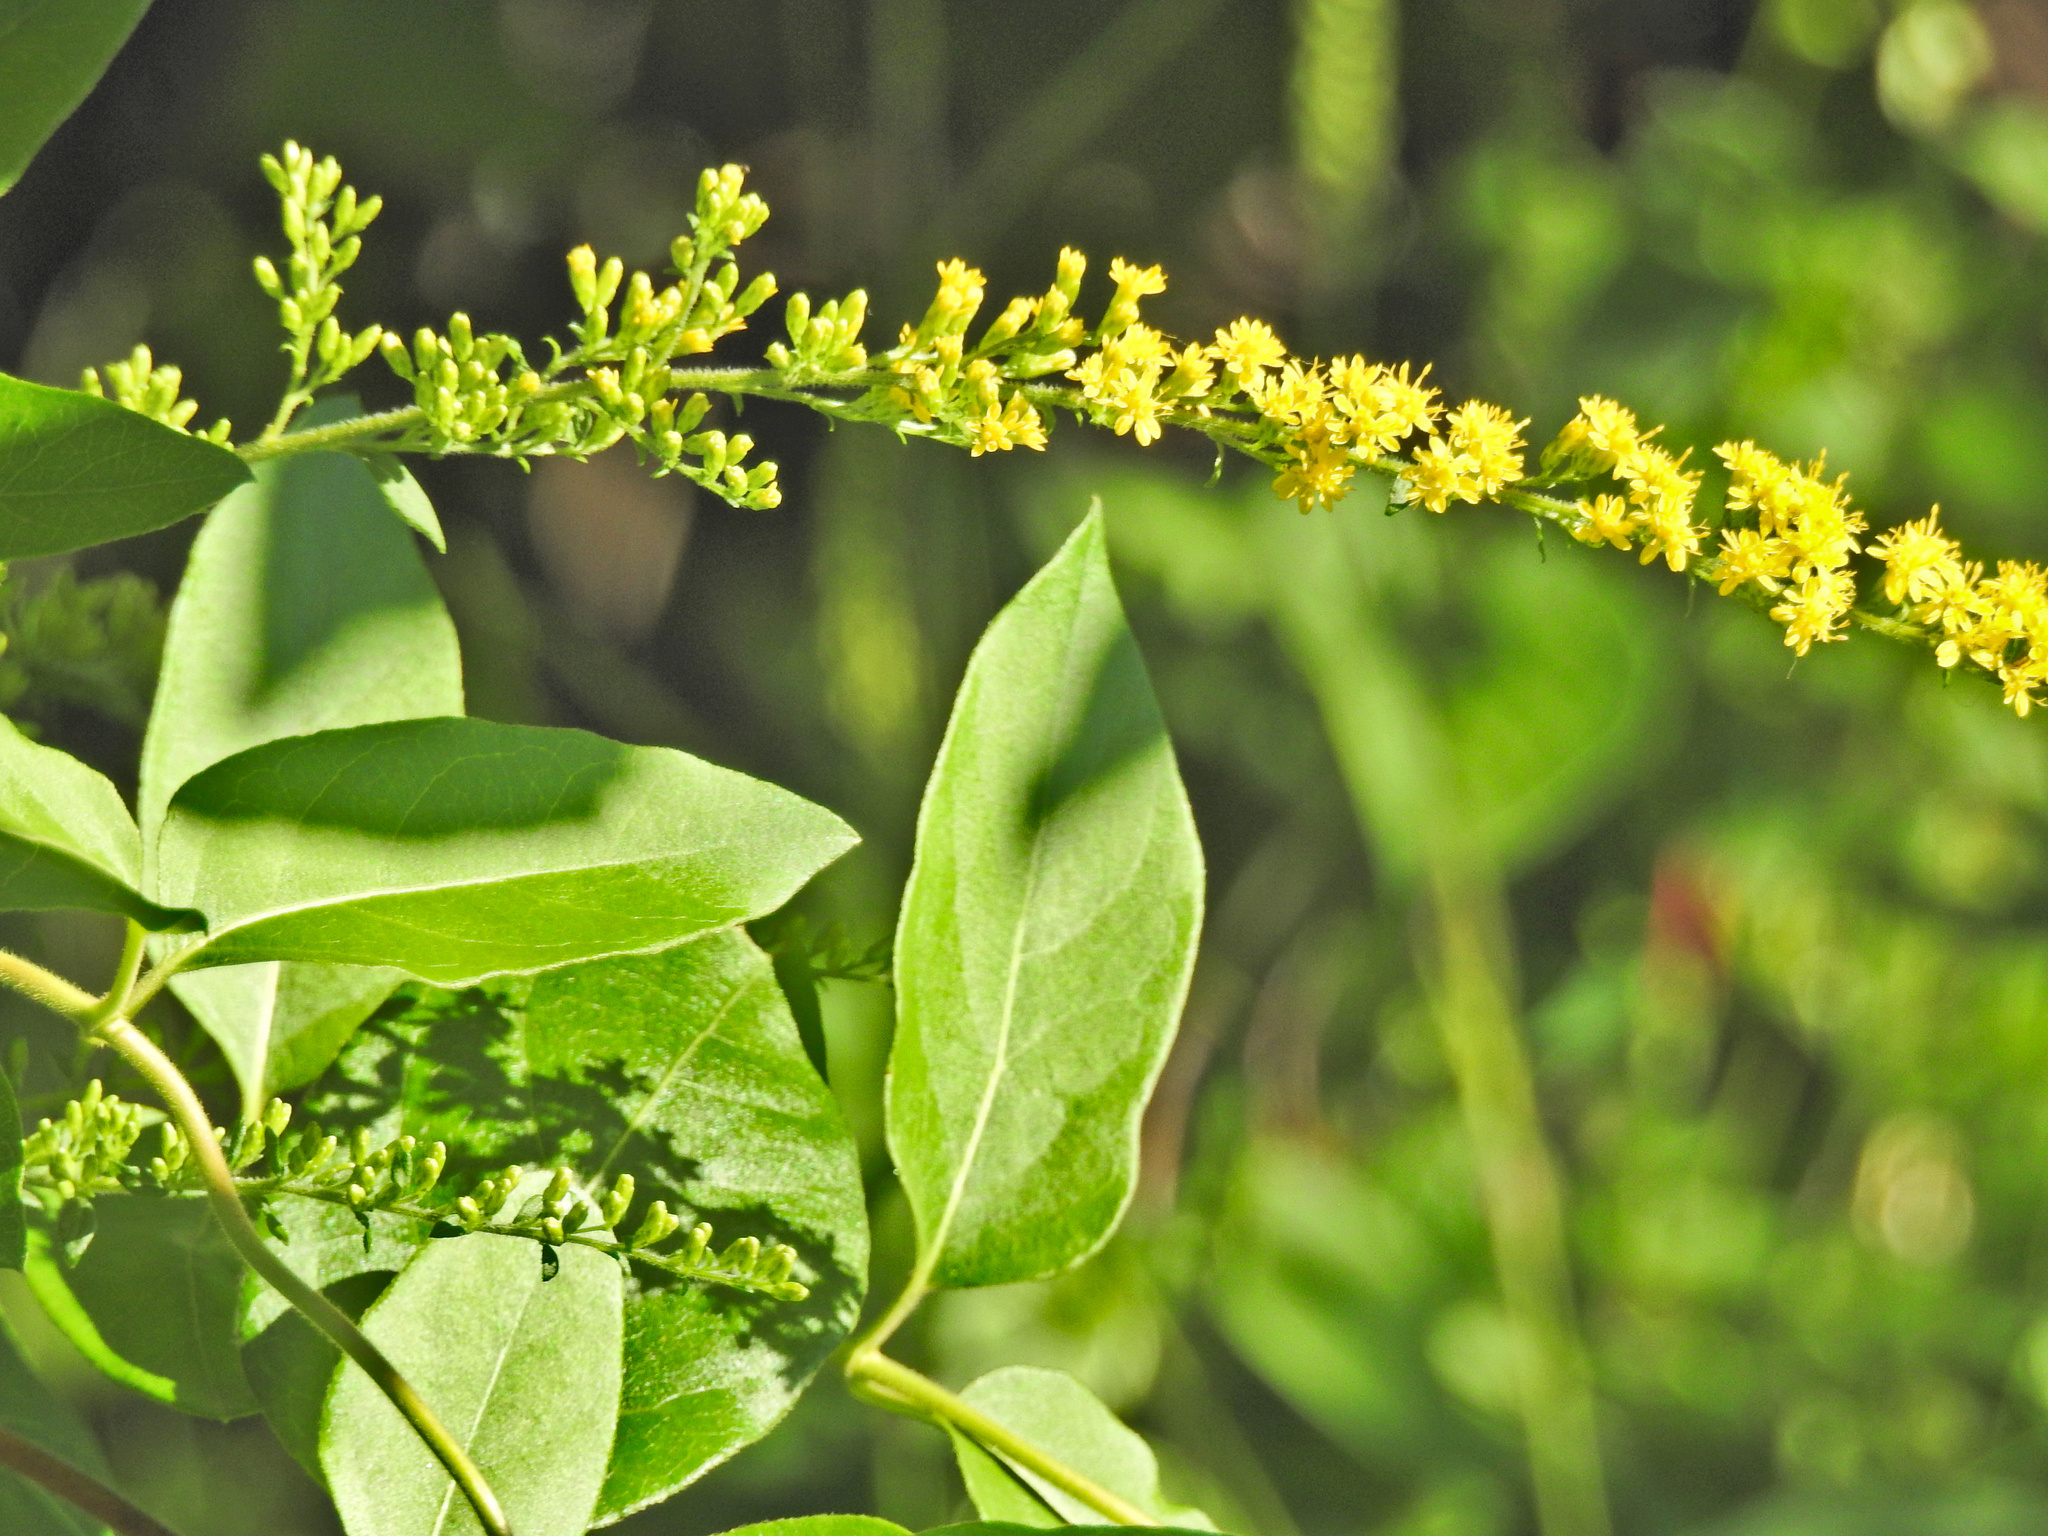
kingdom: Plantae
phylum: Tracheophyta
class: Magnoliopsida
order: Asterales
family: Asteraceae
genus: Solidago
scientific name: Solidago rugosa
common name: Rough-stemmed goldenrod
